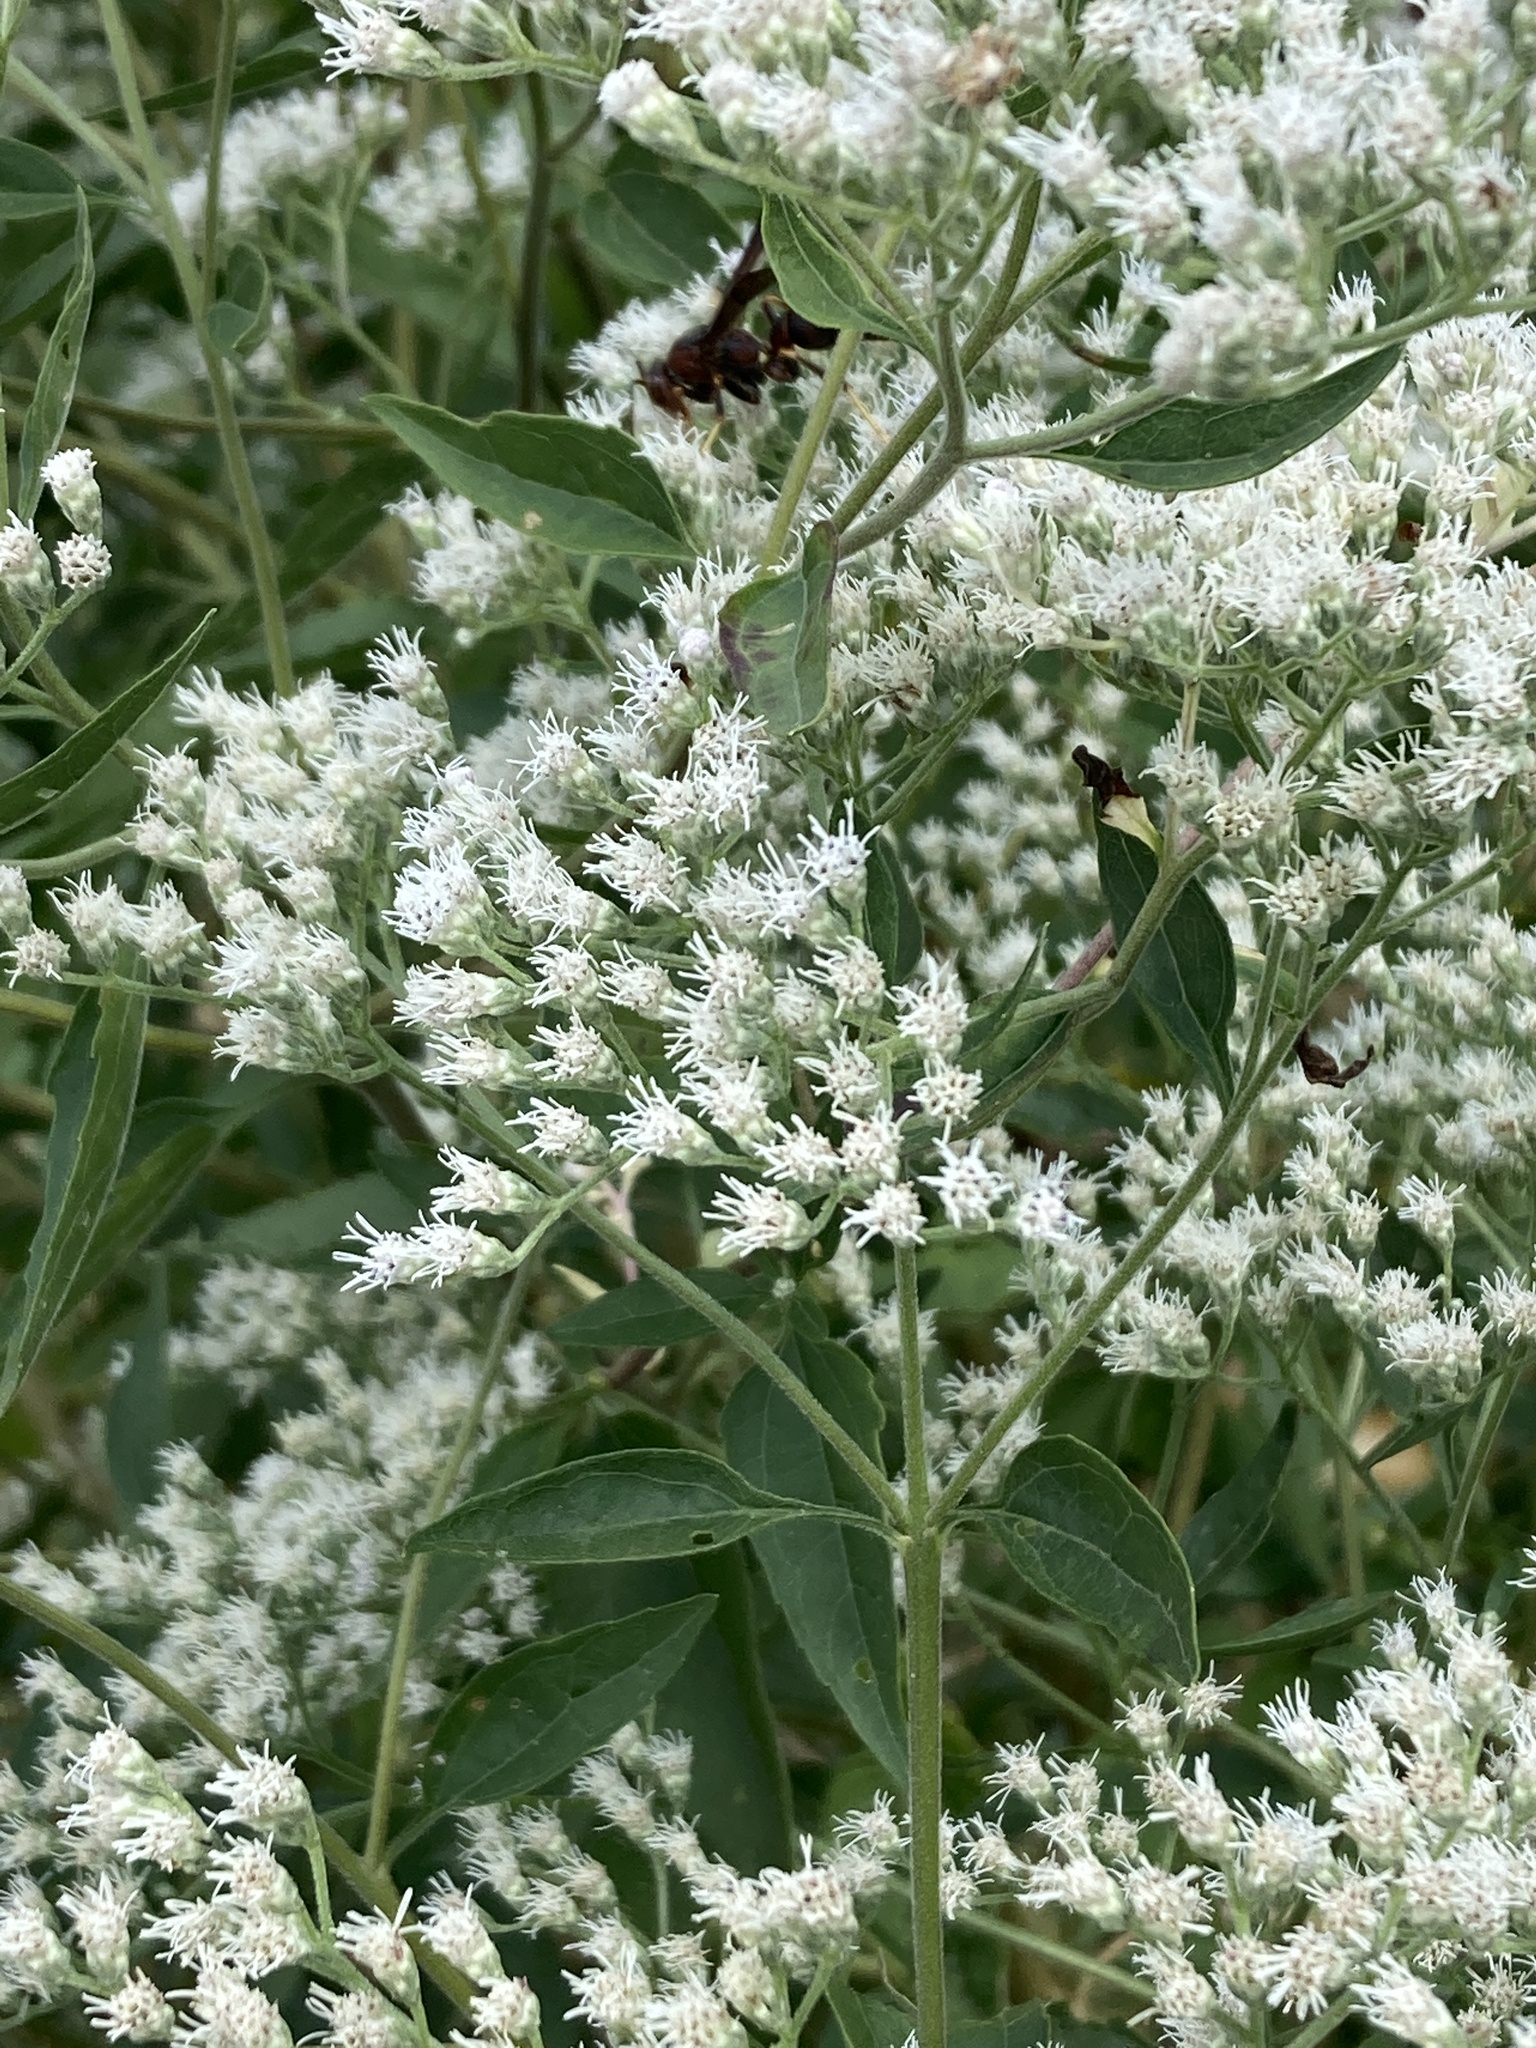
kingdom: Plantae
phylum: Tracheophyta
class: Magnoliopsida
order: Asterales
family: Asteraceae
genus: Eupatorium
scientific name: Eupatorium serotinum
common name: Late boneset
